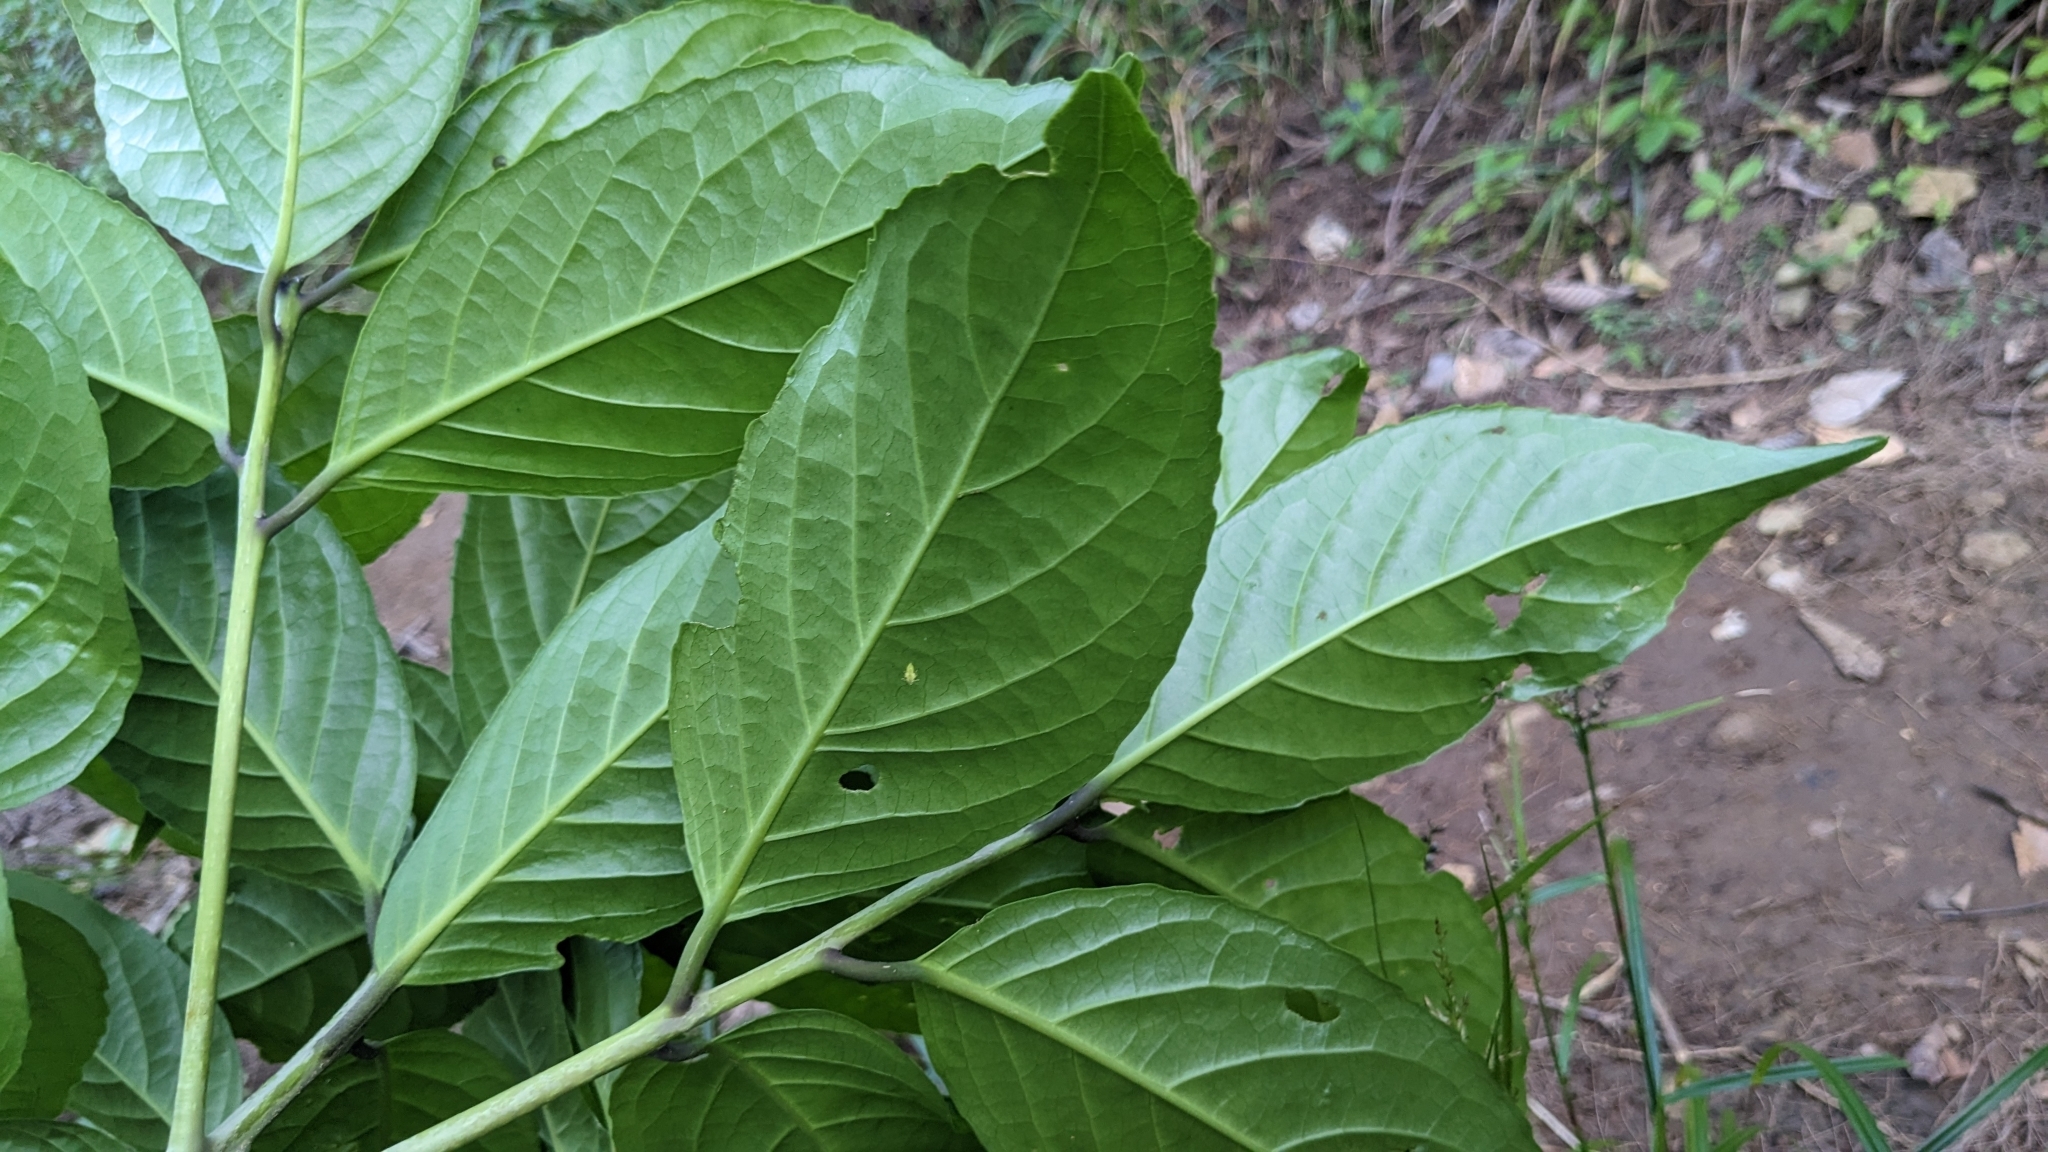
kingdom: Plantae
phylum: Tracheophyta
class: Magnoliopsida
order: Ericales
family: Symplocaceae
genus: Symplocos
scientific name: Symplocos cochinchinensis
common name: Buff hazelwood
